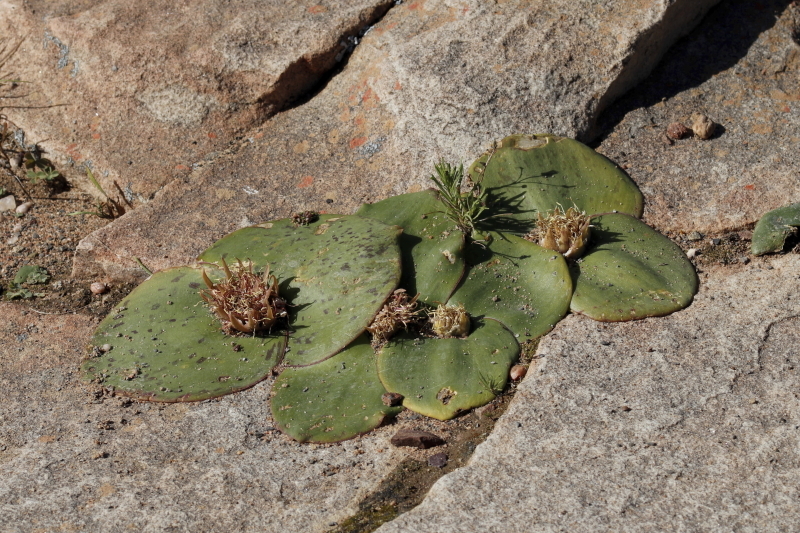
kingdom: Plantae
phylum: Tracheophyta
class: Liliopsida
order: Asparagales
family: Asparagaceae
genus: Massonia
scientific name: Massonia depressa
